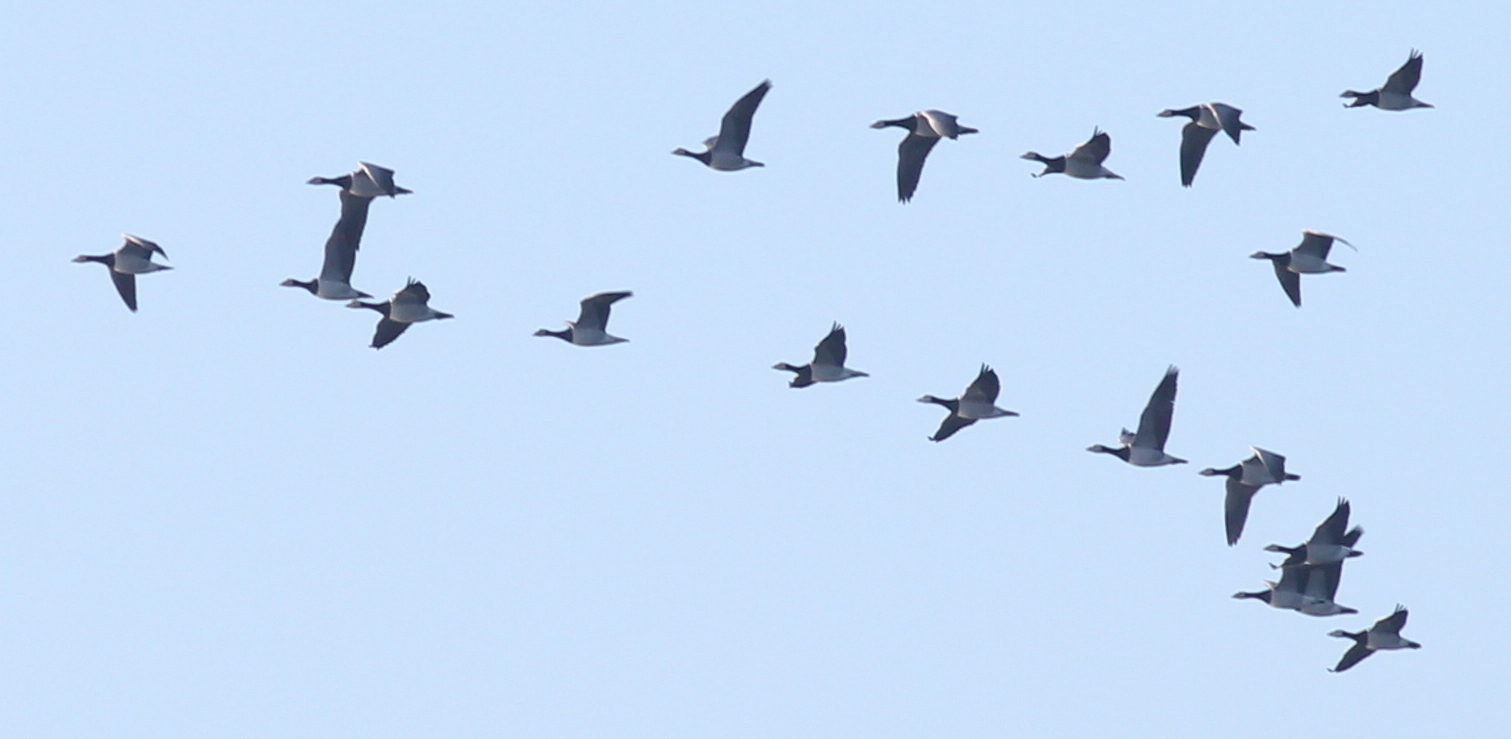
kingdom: Animalia
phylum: Chordata
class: Aves
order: Anseriformes
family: Anatidae
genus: Branta
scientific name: Branta leucopsis
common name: Barnacle goose
